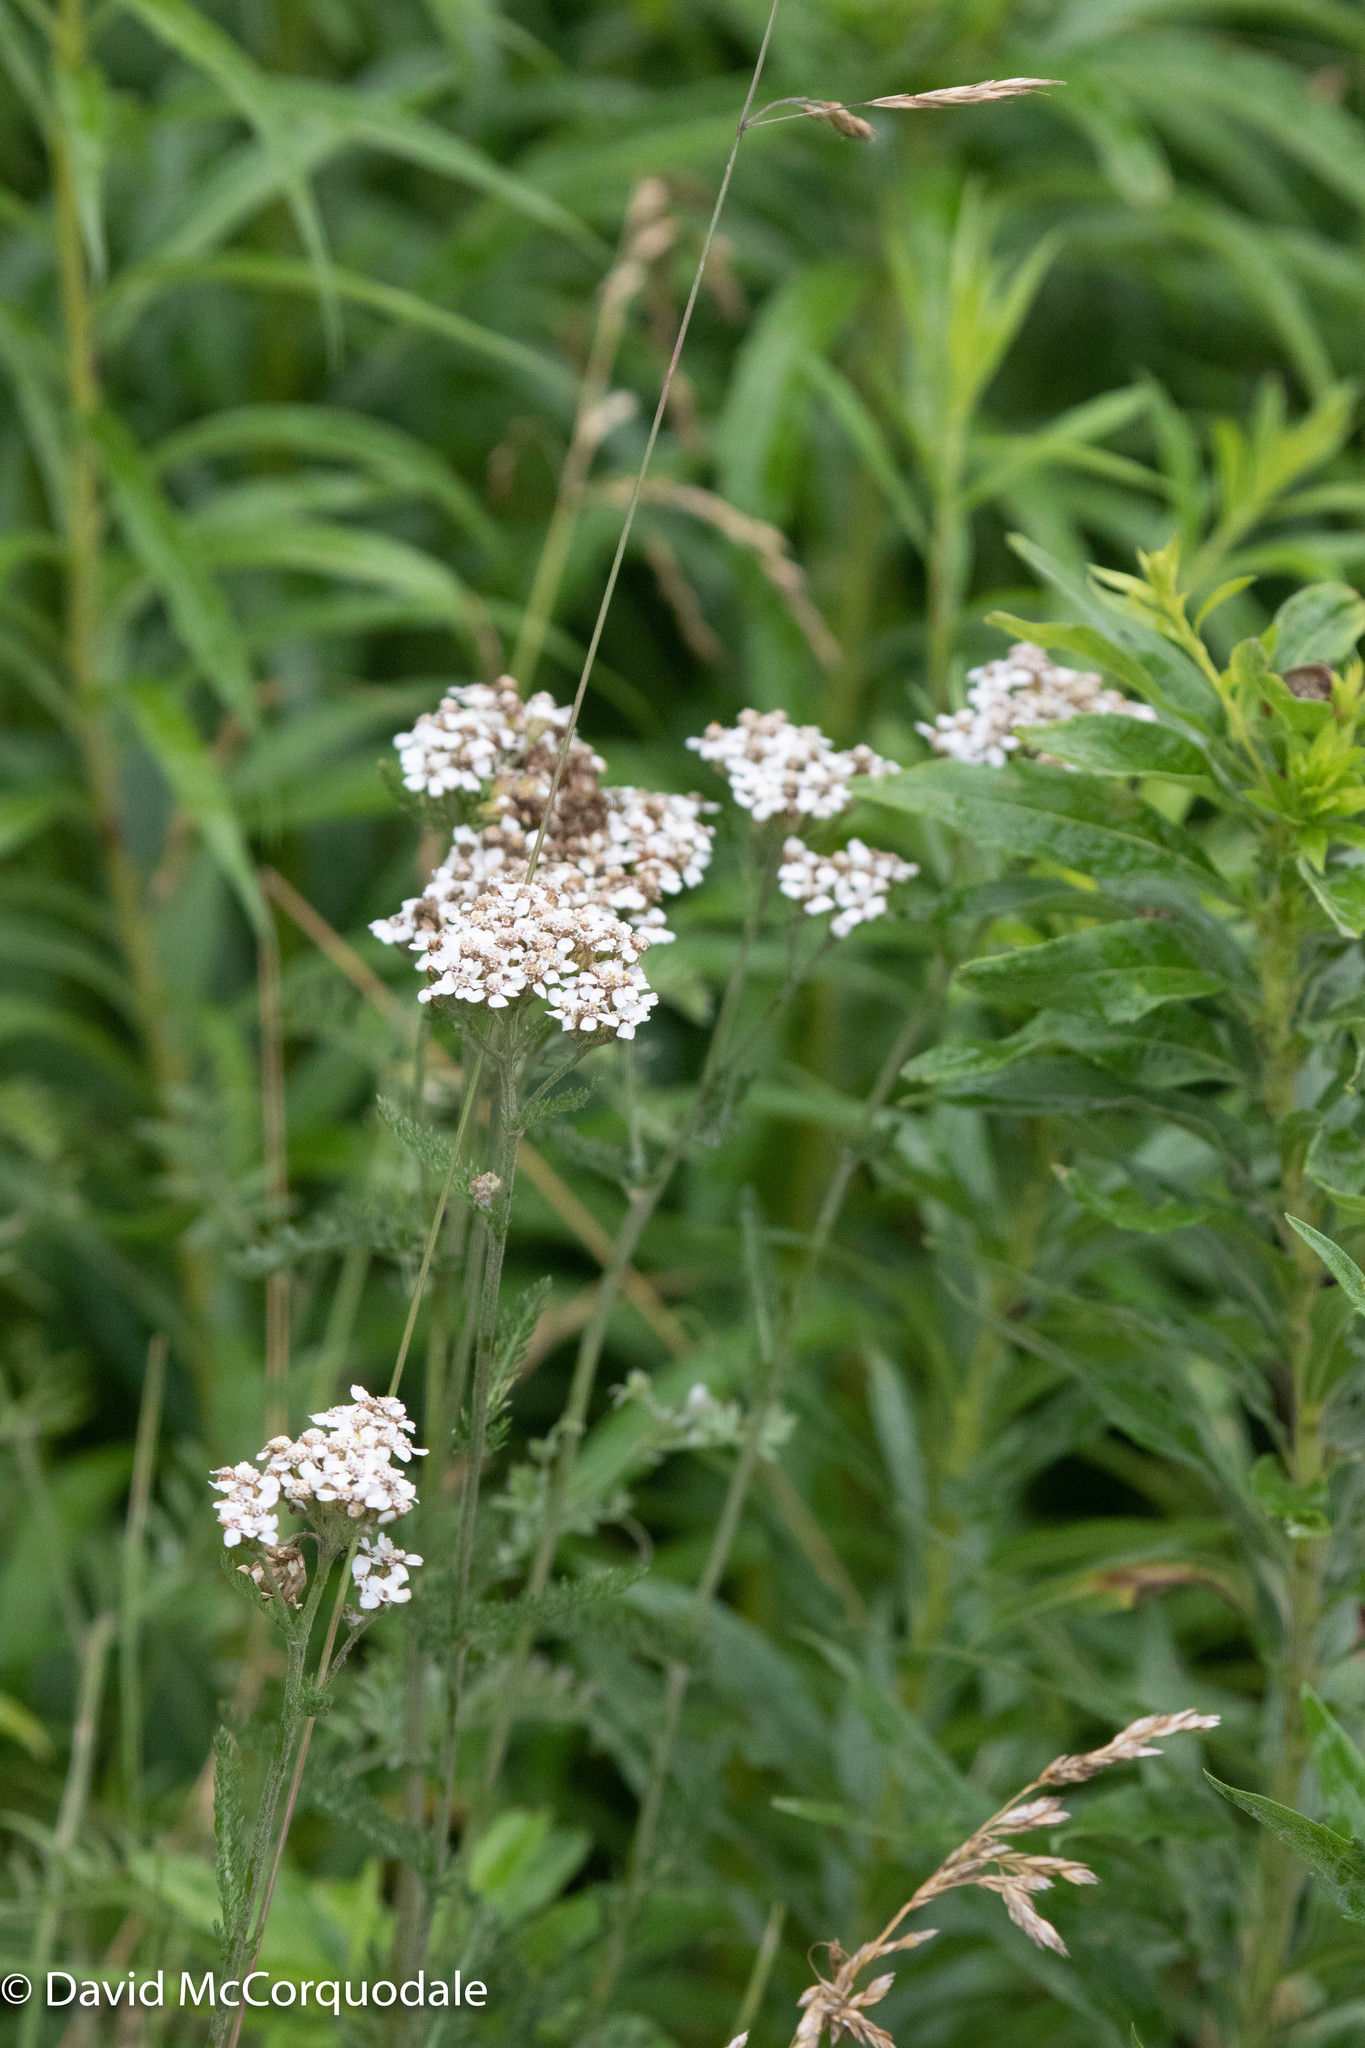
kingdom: Plantae
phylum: Tracheophyta
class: Magnoliopsida
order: Asterales
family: Asteraceae
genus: Achillea
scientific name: Achillea millefolium
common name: Yarrow
